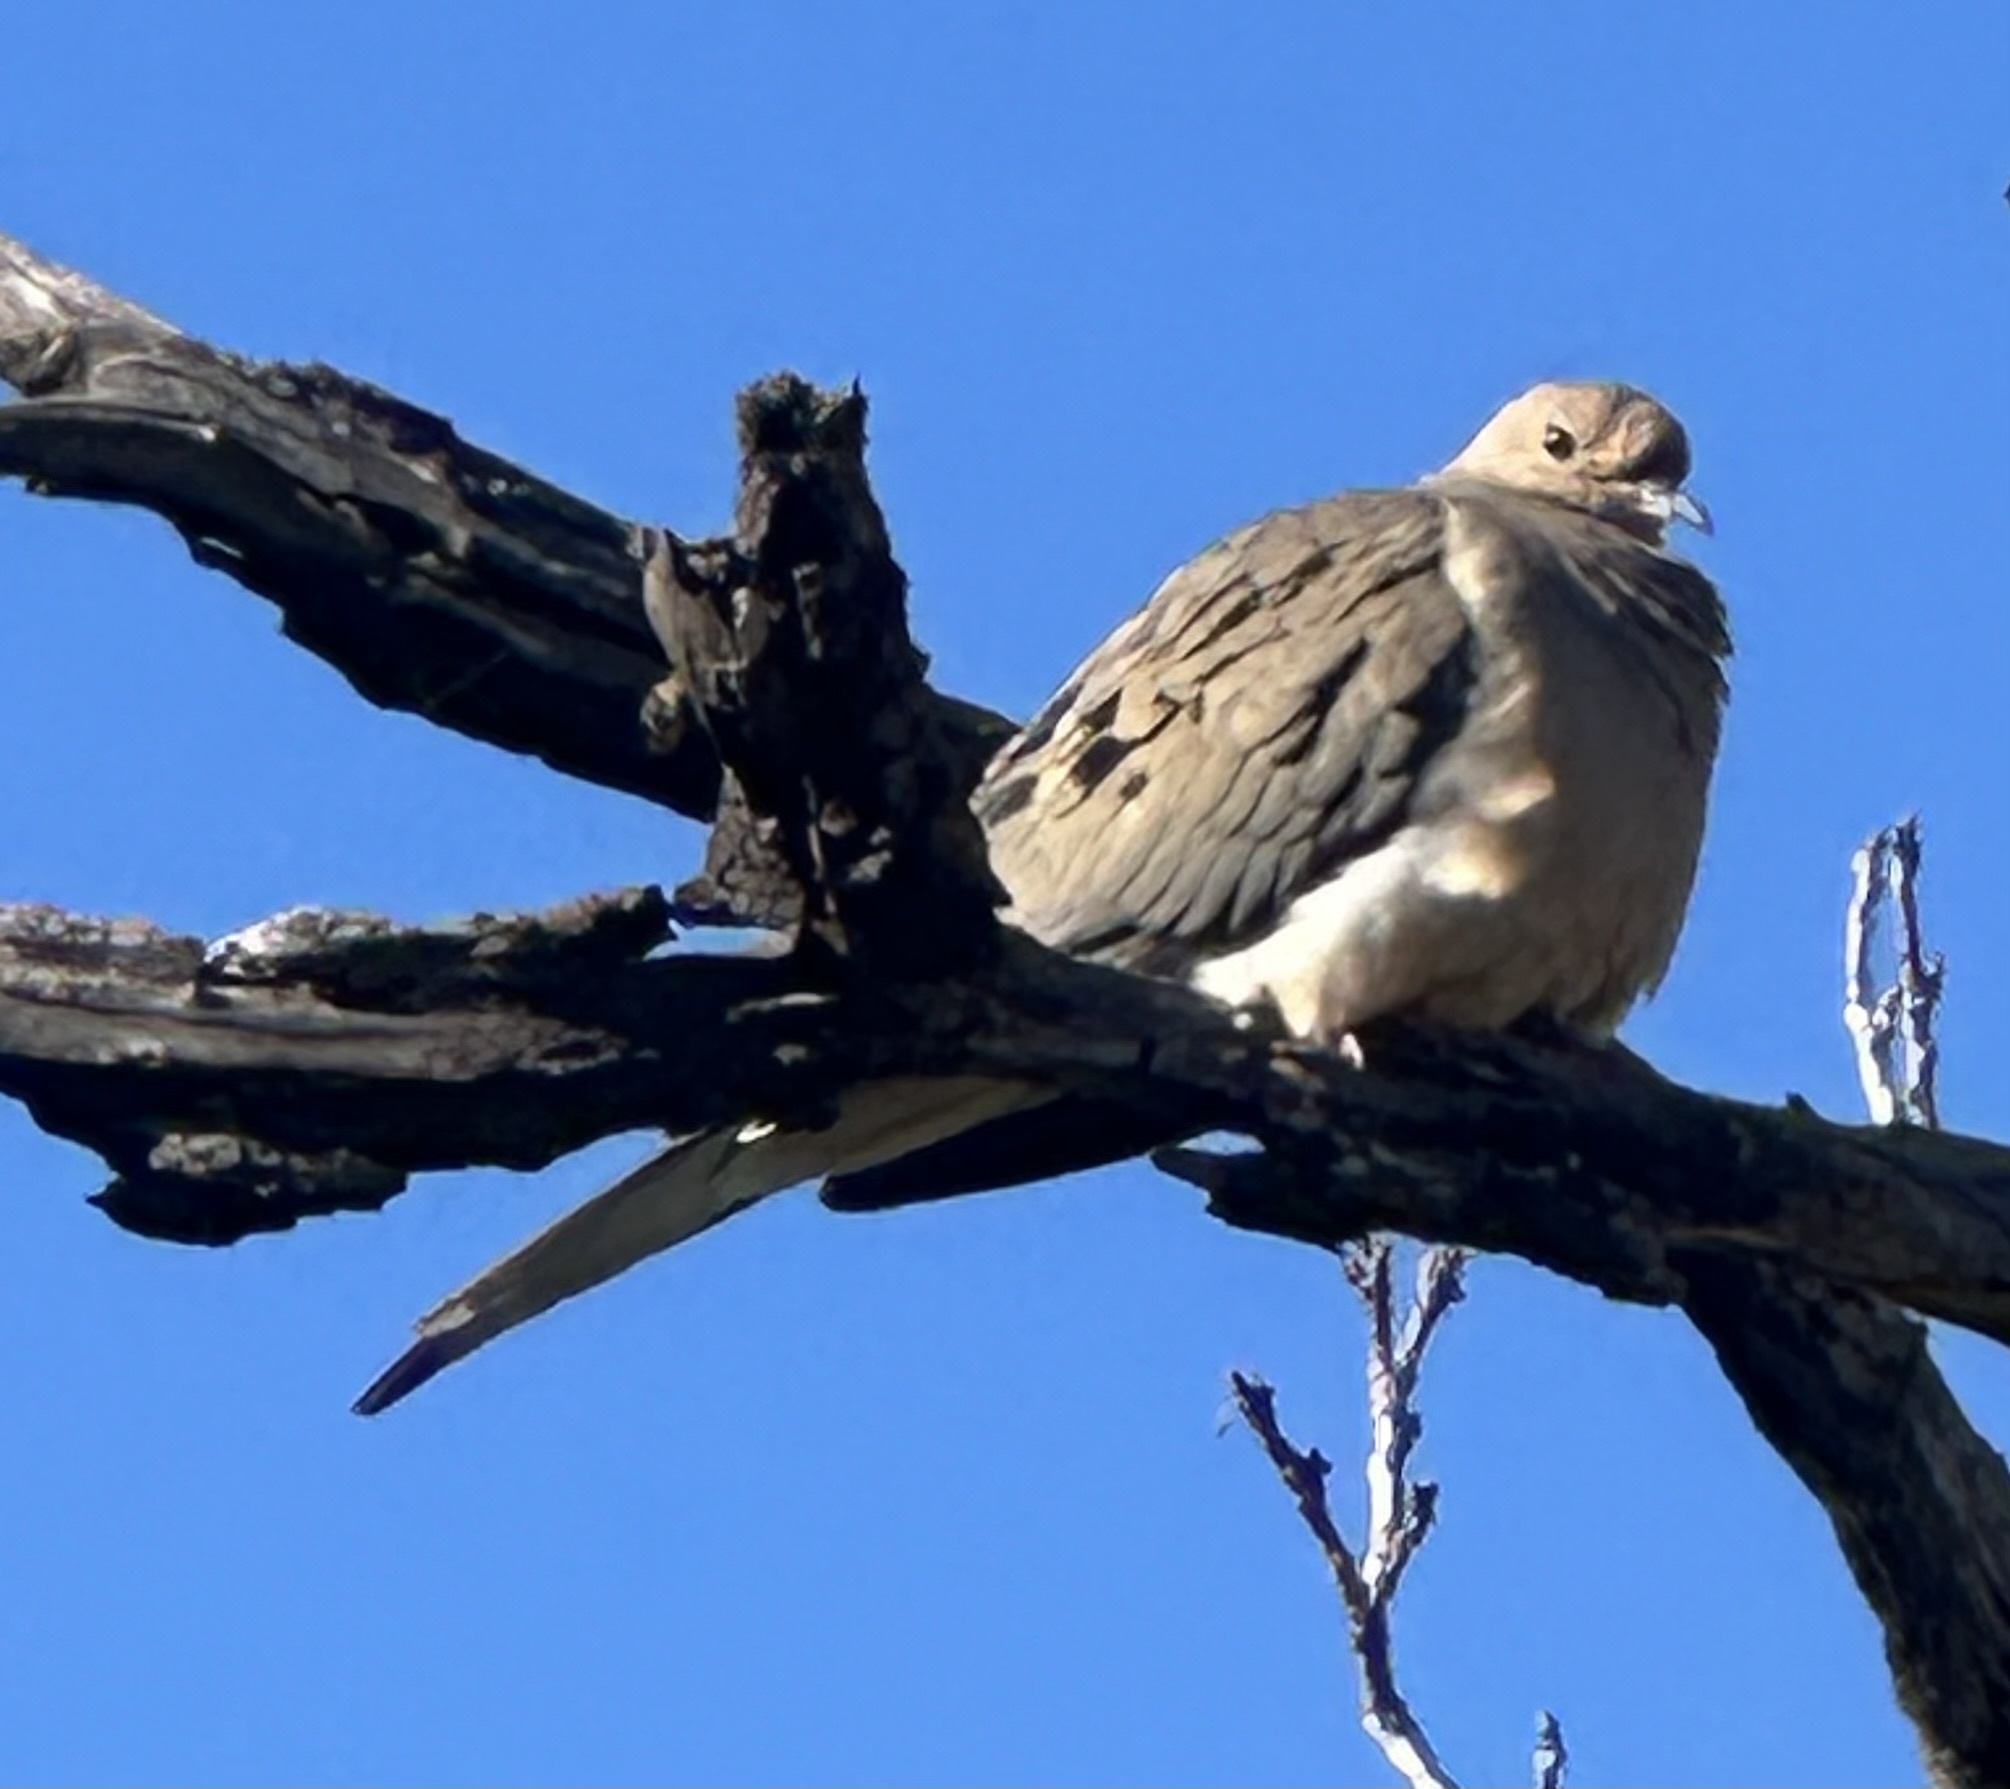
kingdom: Animalia
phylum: Chordata
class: Aves
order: Columbiformes
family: Columbidae
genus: Zenaida
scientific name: Zenaida macroura
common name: Mourning dove
